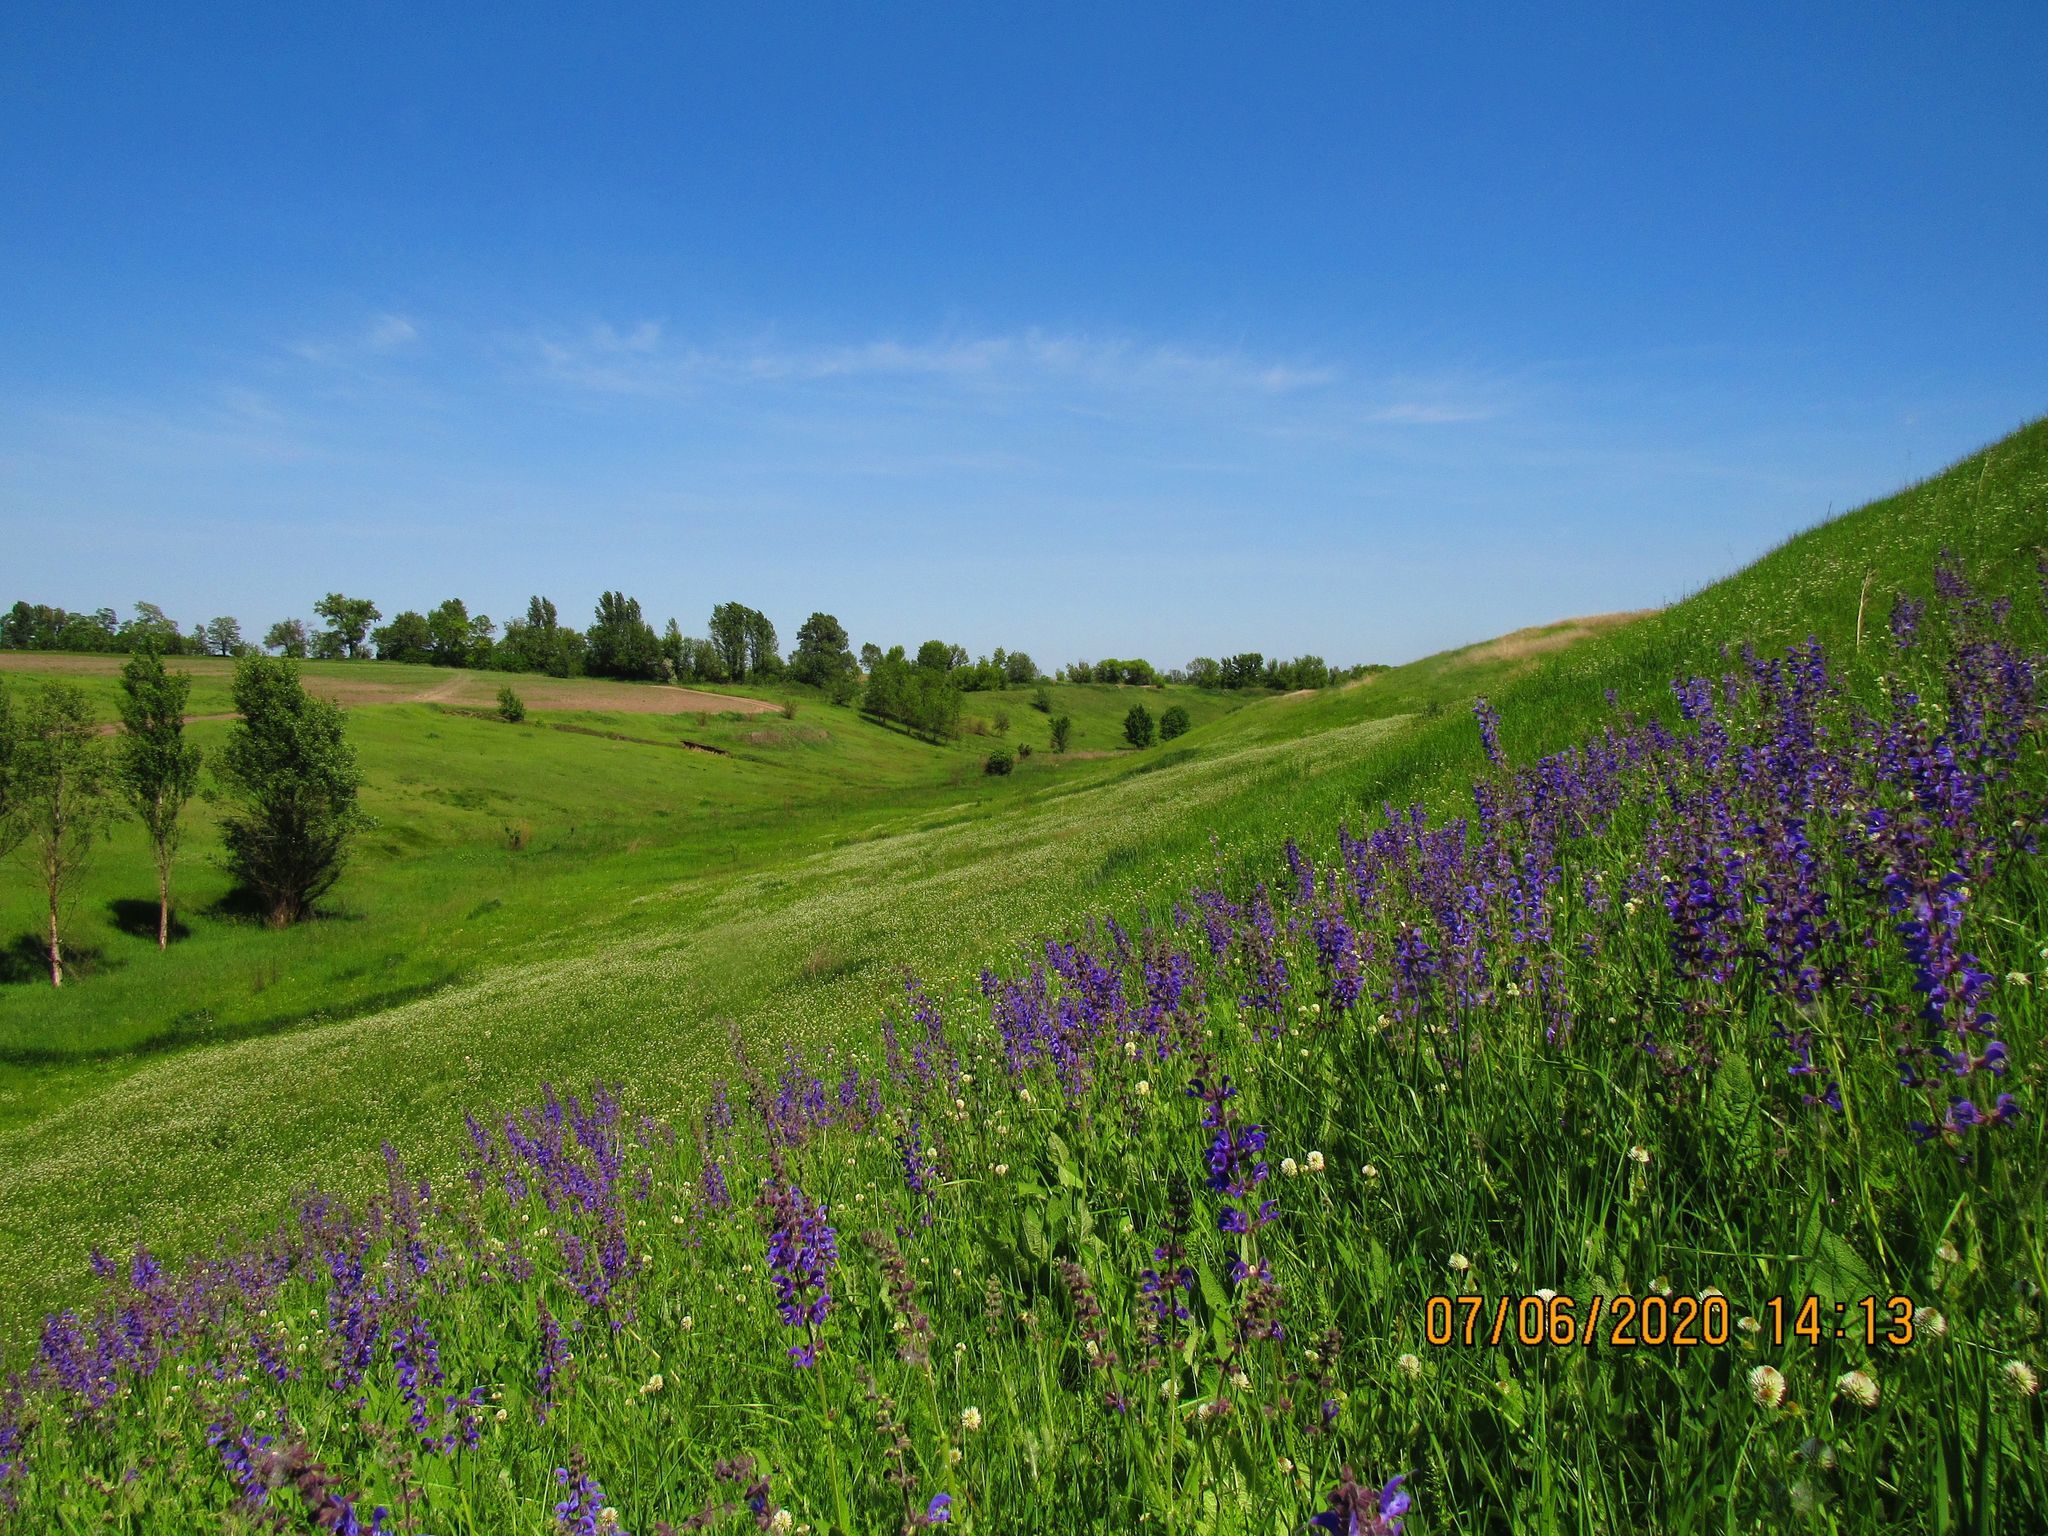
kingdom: Plantae
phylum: Tracheophyta
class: Magnoliopsida
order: Lamiales
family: Lamiaceae
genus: Salvia
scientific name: Salvia pratensis
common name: Meadow sage
